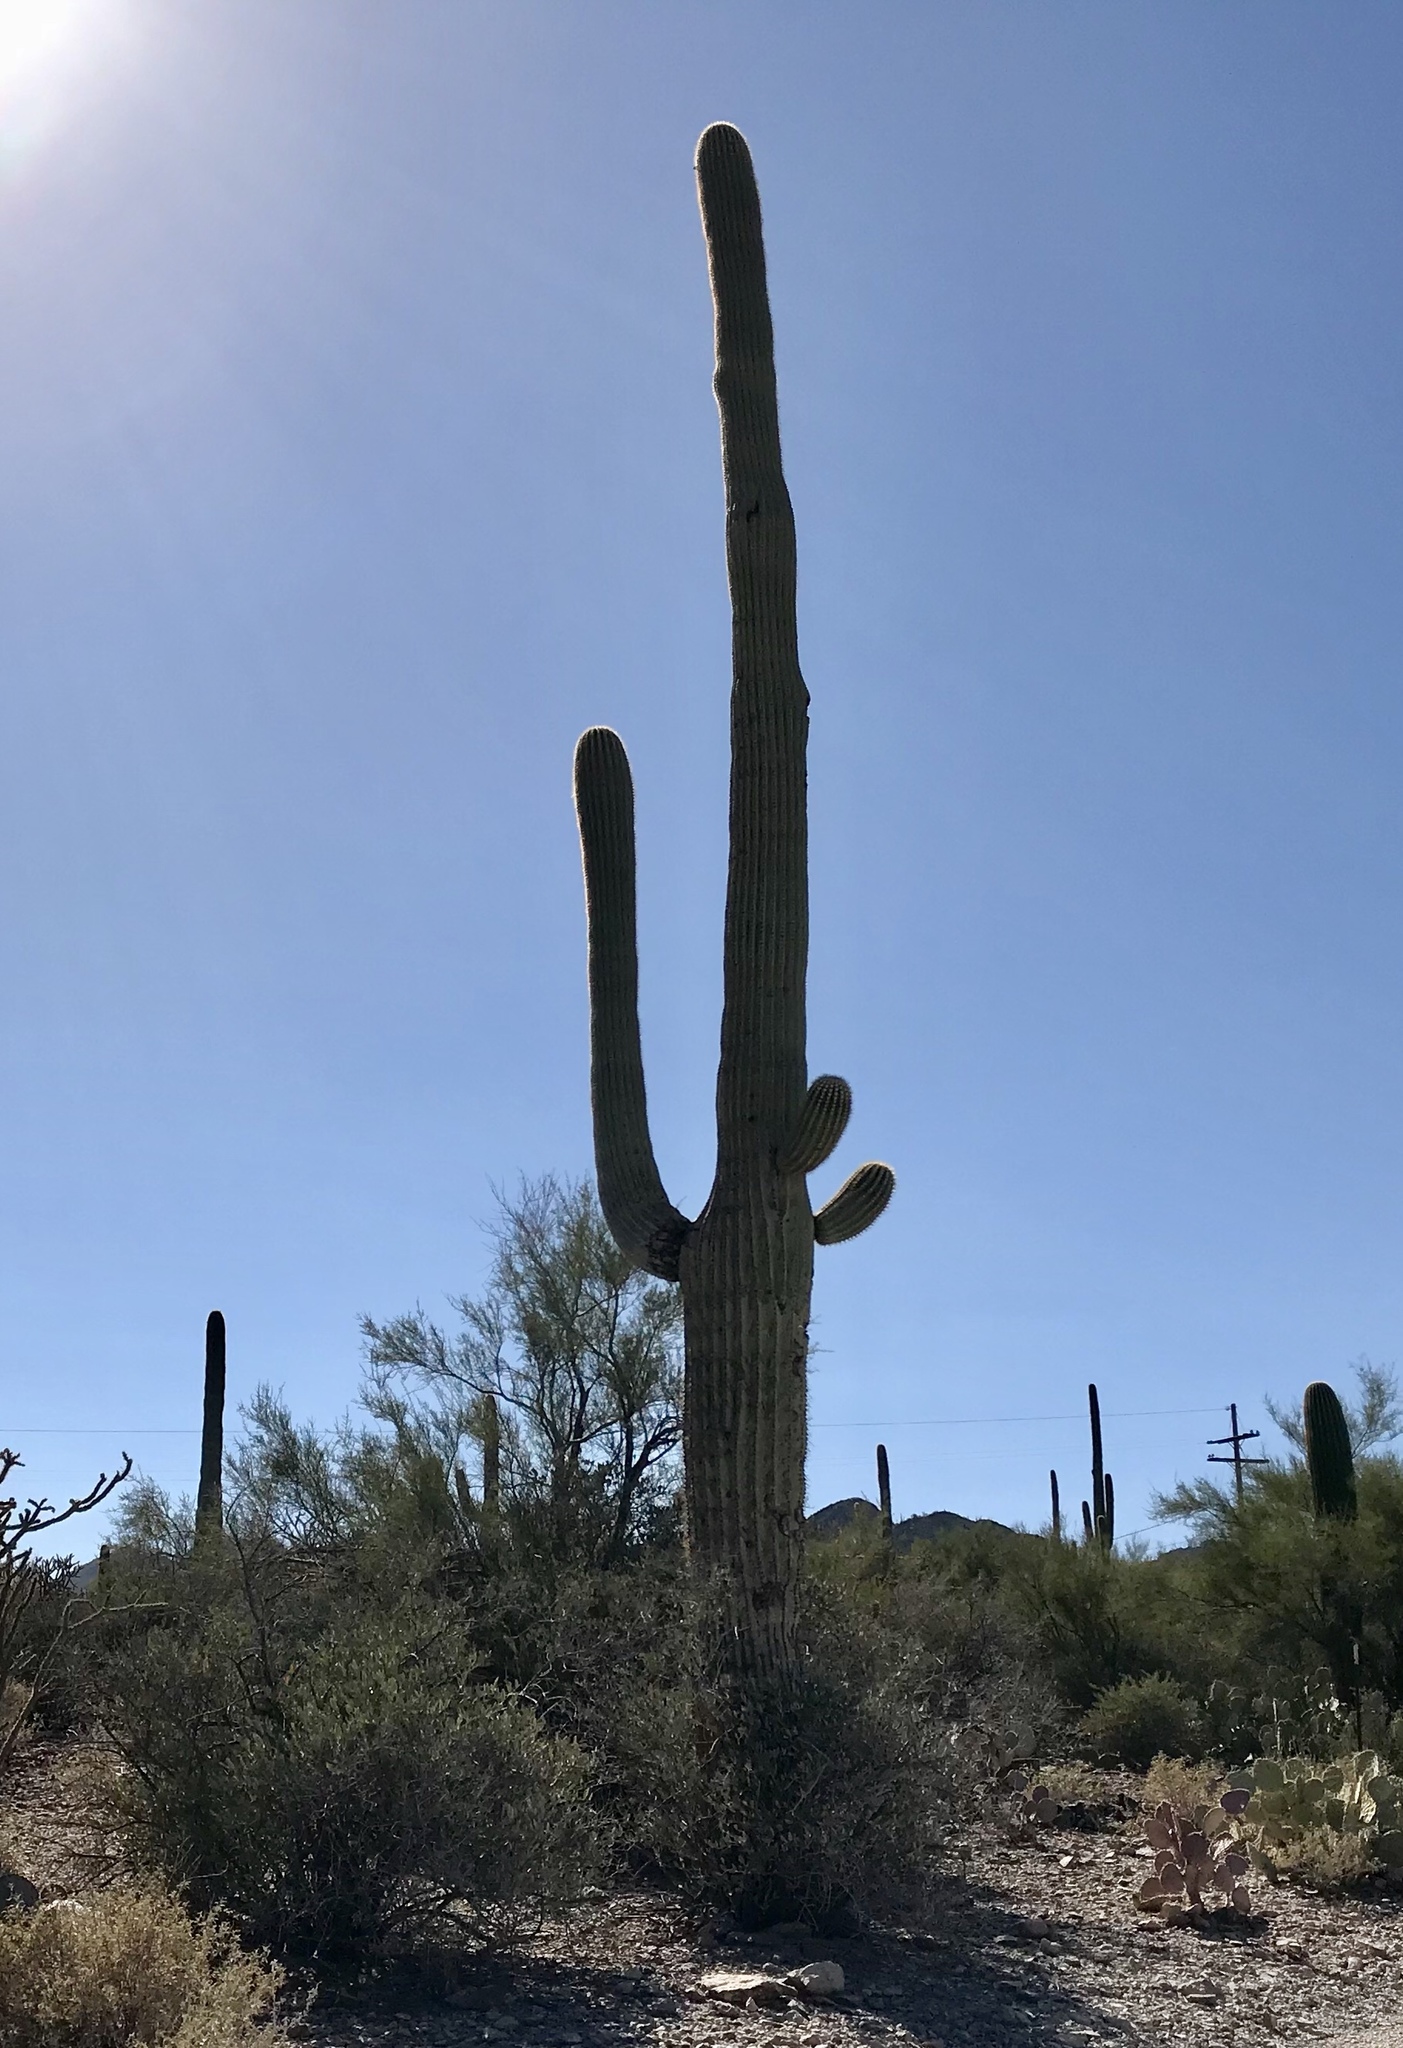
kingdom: Plantae
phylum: Tracheophyta
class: Magnoliopsida
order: Caryophyllales
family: Cactaceae
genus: Carnegiea
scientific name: Carnegiea gigantea
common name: Saguaro
